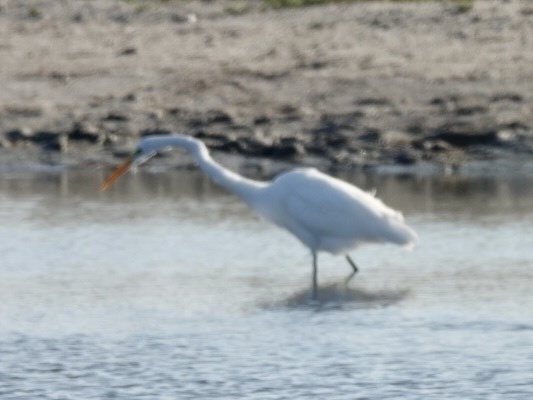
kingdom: Animalia
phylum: Chordata
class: Aves
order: Pelecaniformes
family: Ardeidae
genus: Ardea
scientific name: Ardea alba
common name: Great egret
